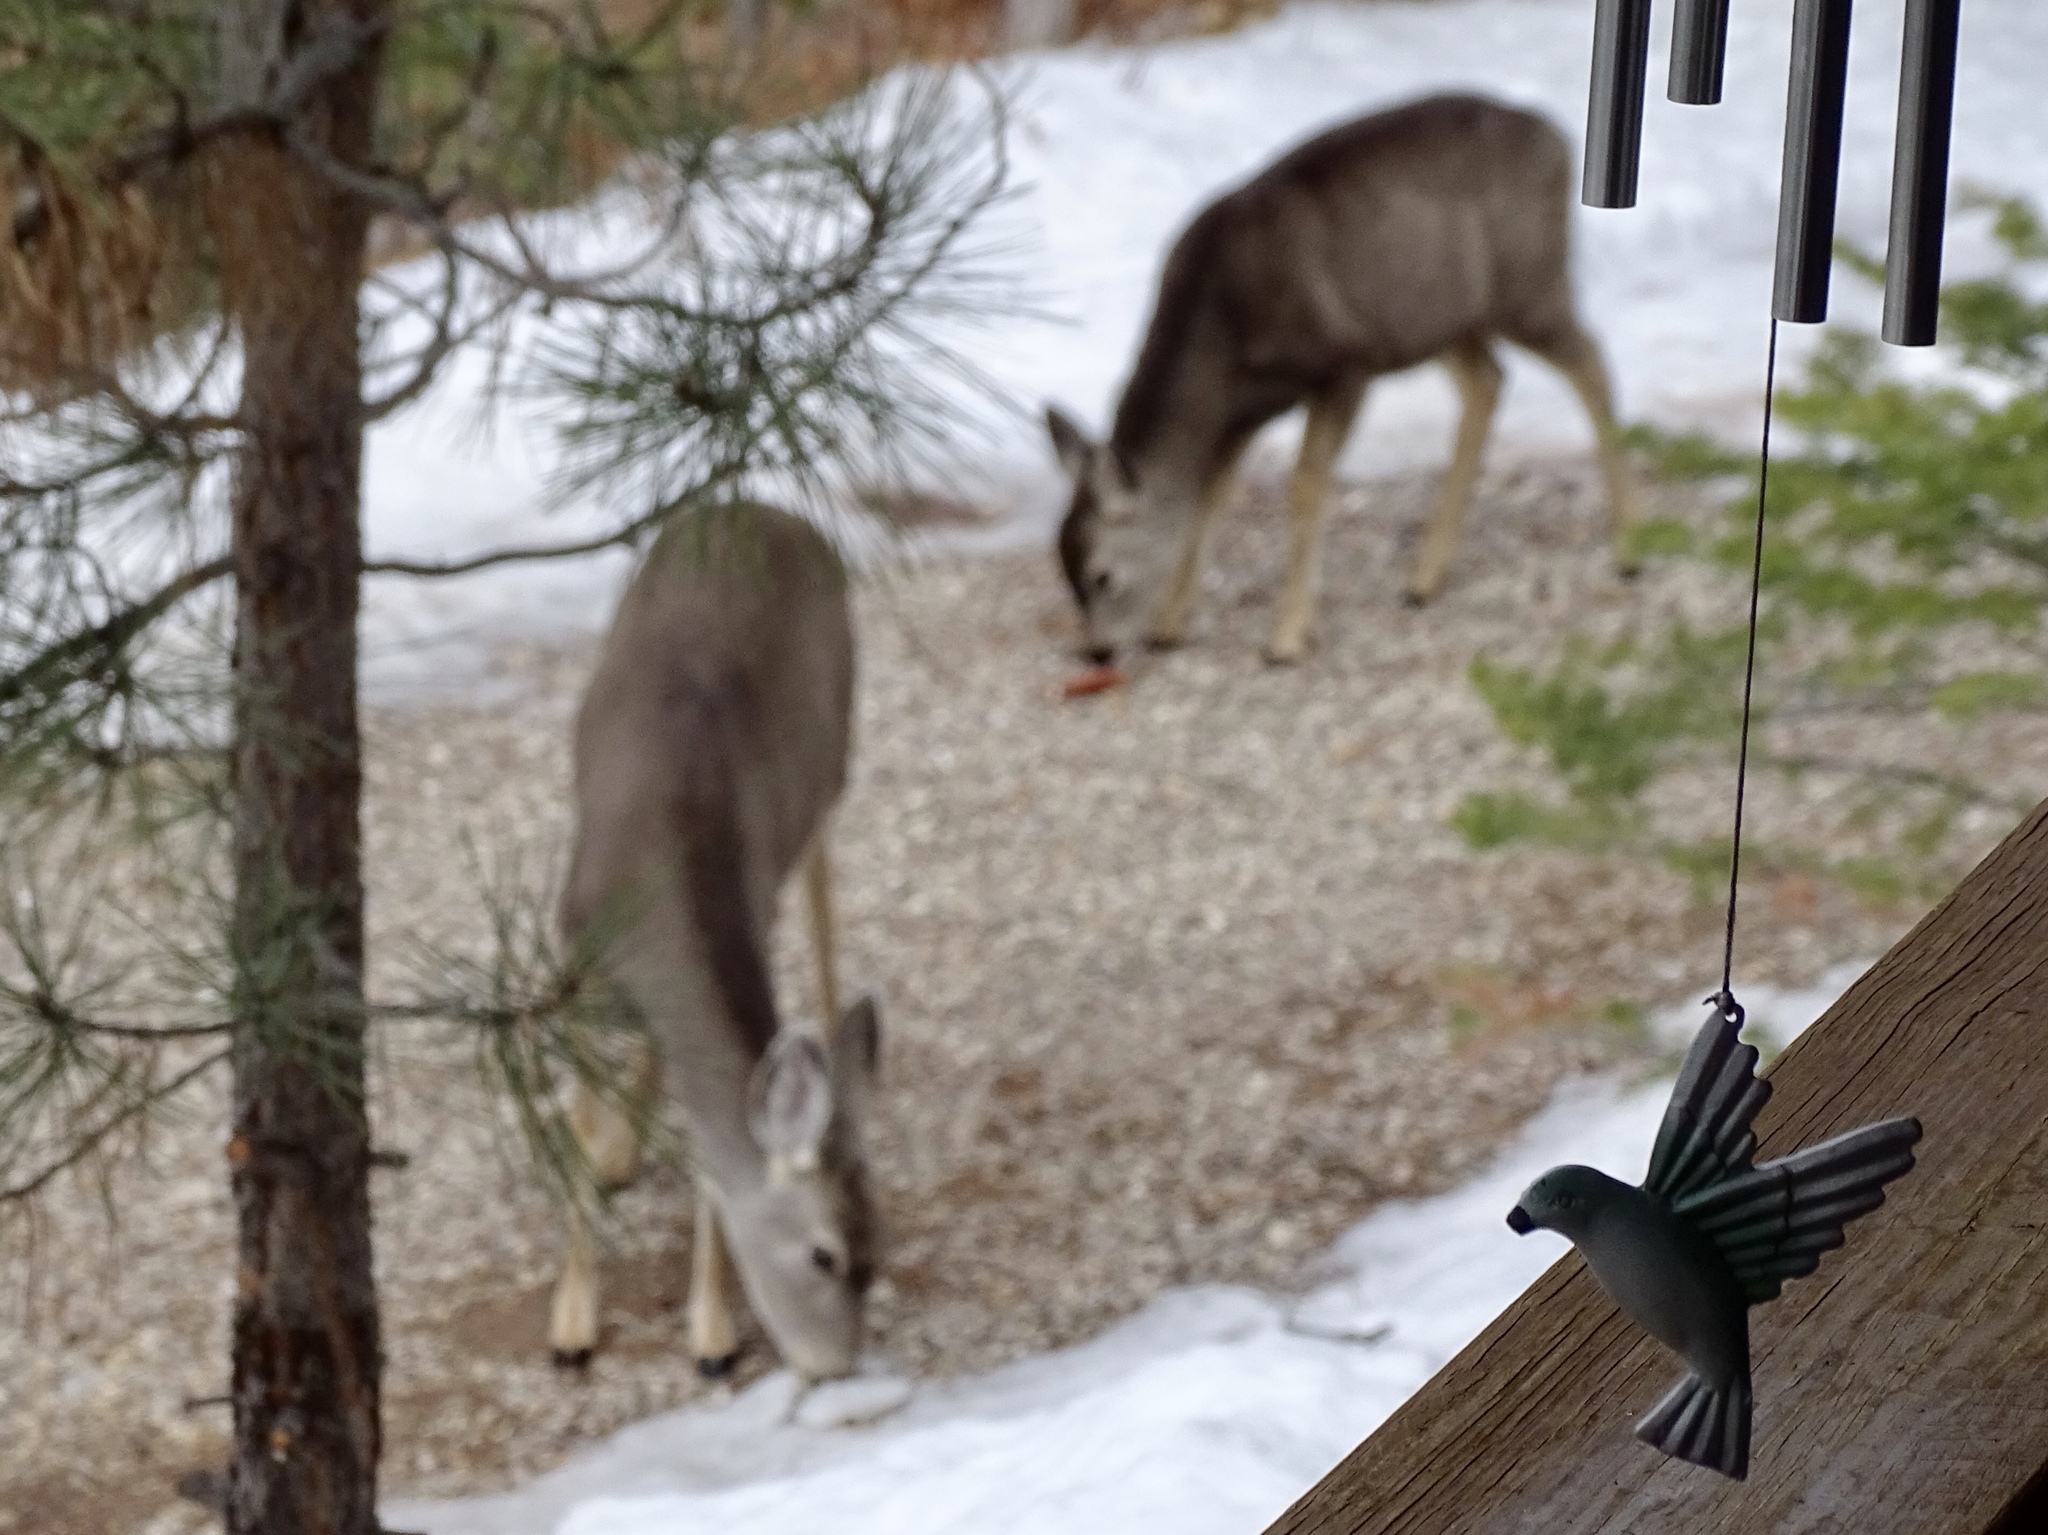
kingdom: Animalia
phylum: Chordata
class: Mammalia
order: Artiodactyla
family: Cervidae
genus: Odocoileus
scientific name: Odocoileus hemionus
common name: Mule deer
